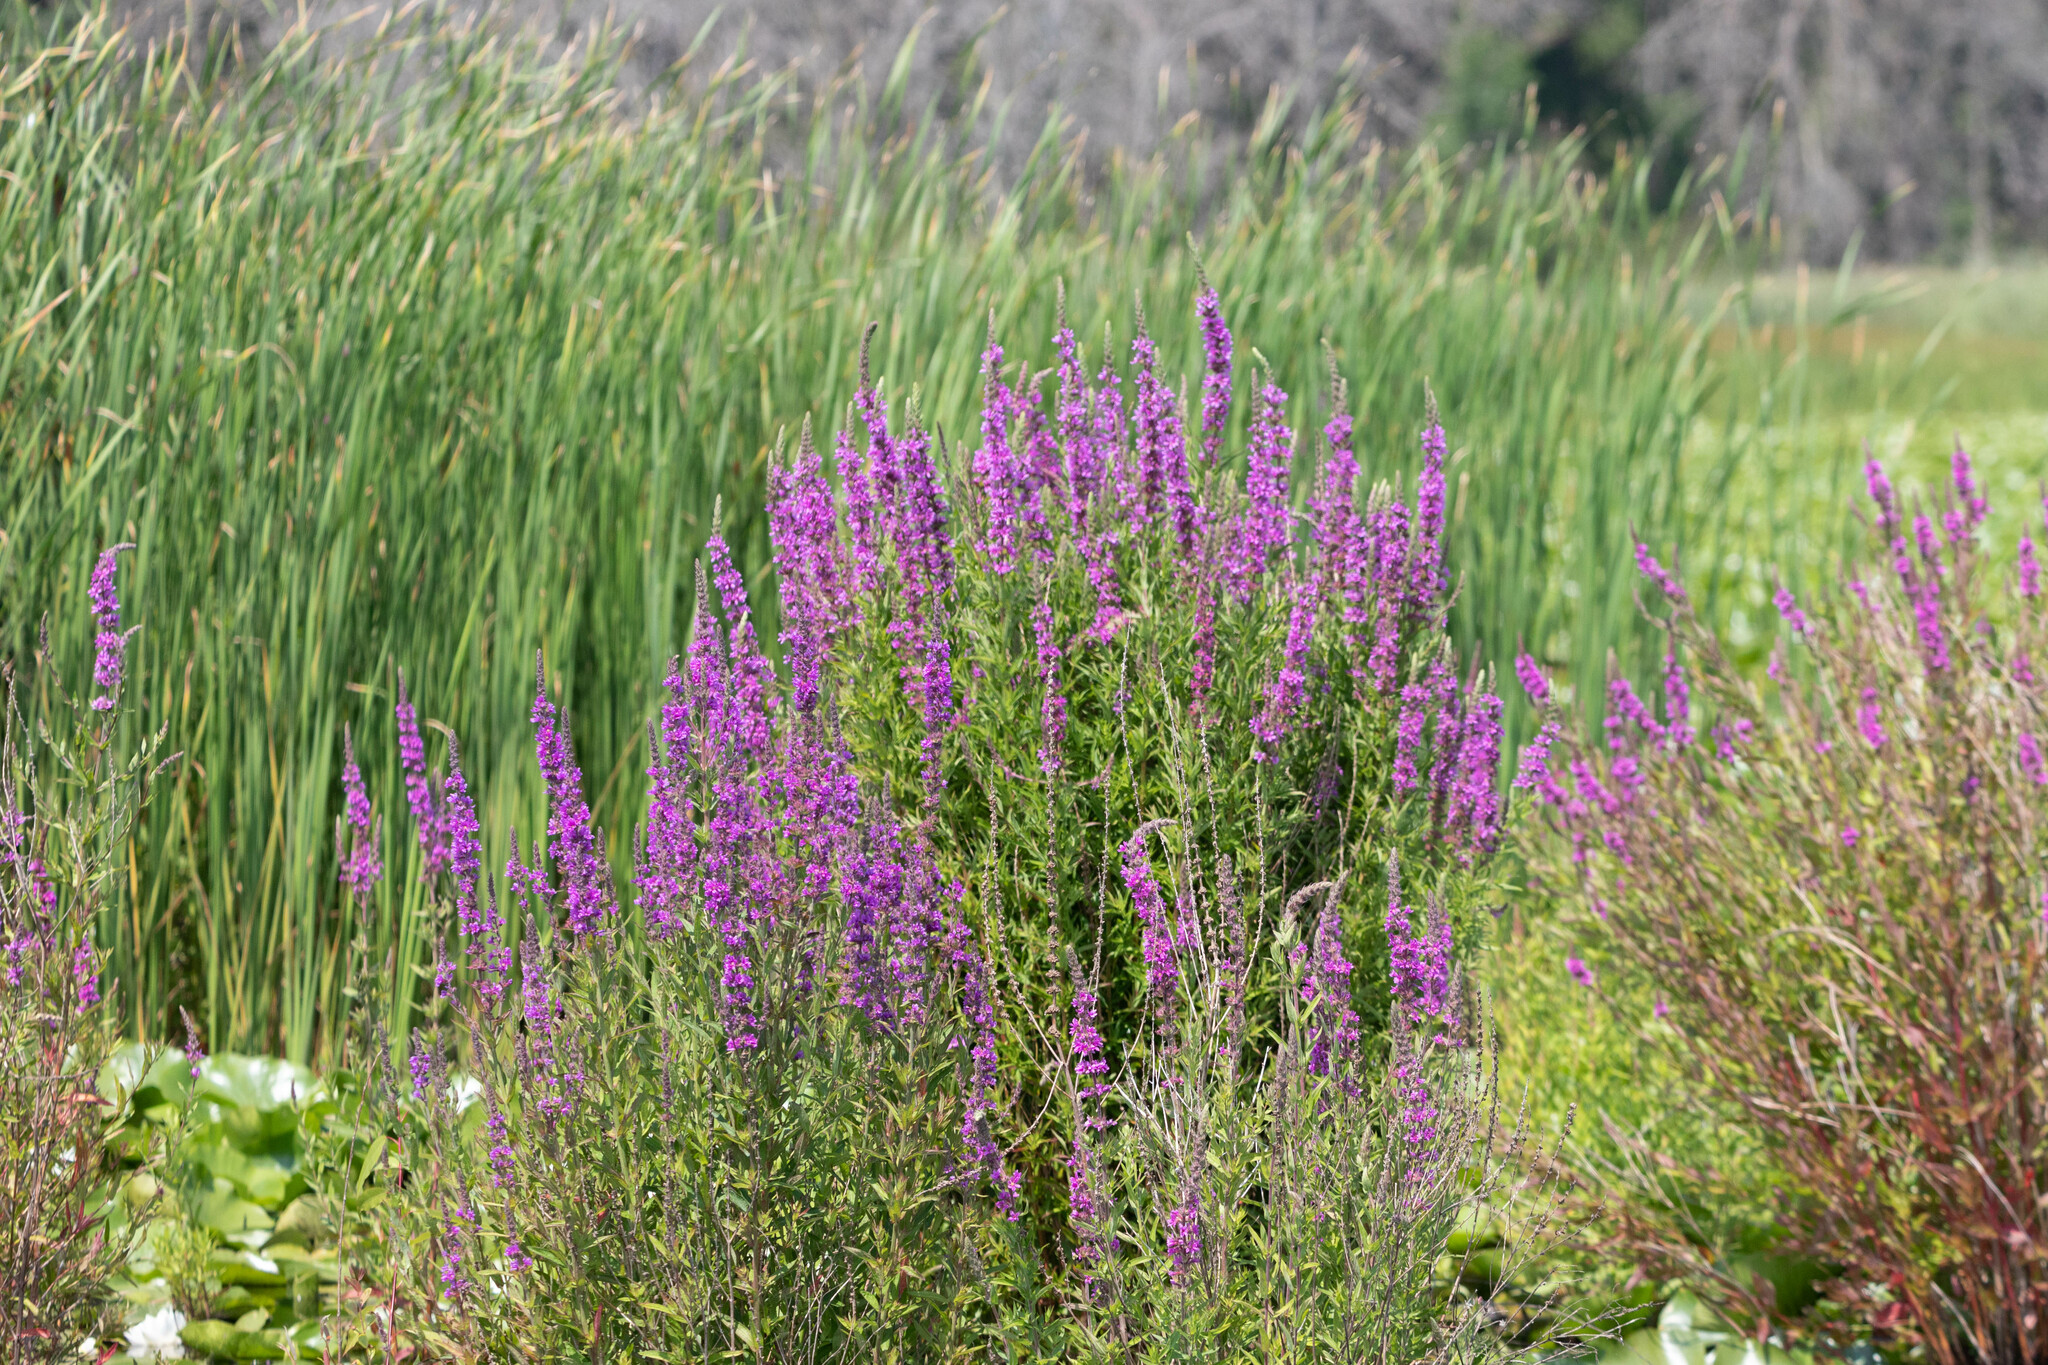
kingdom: Plantae
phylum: Tracheophyta
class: Magnoliopsida
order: Myrtales
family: Lythraceae
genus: Lythrum
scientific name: Lythrum salicaria
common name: Purple loosestrife
